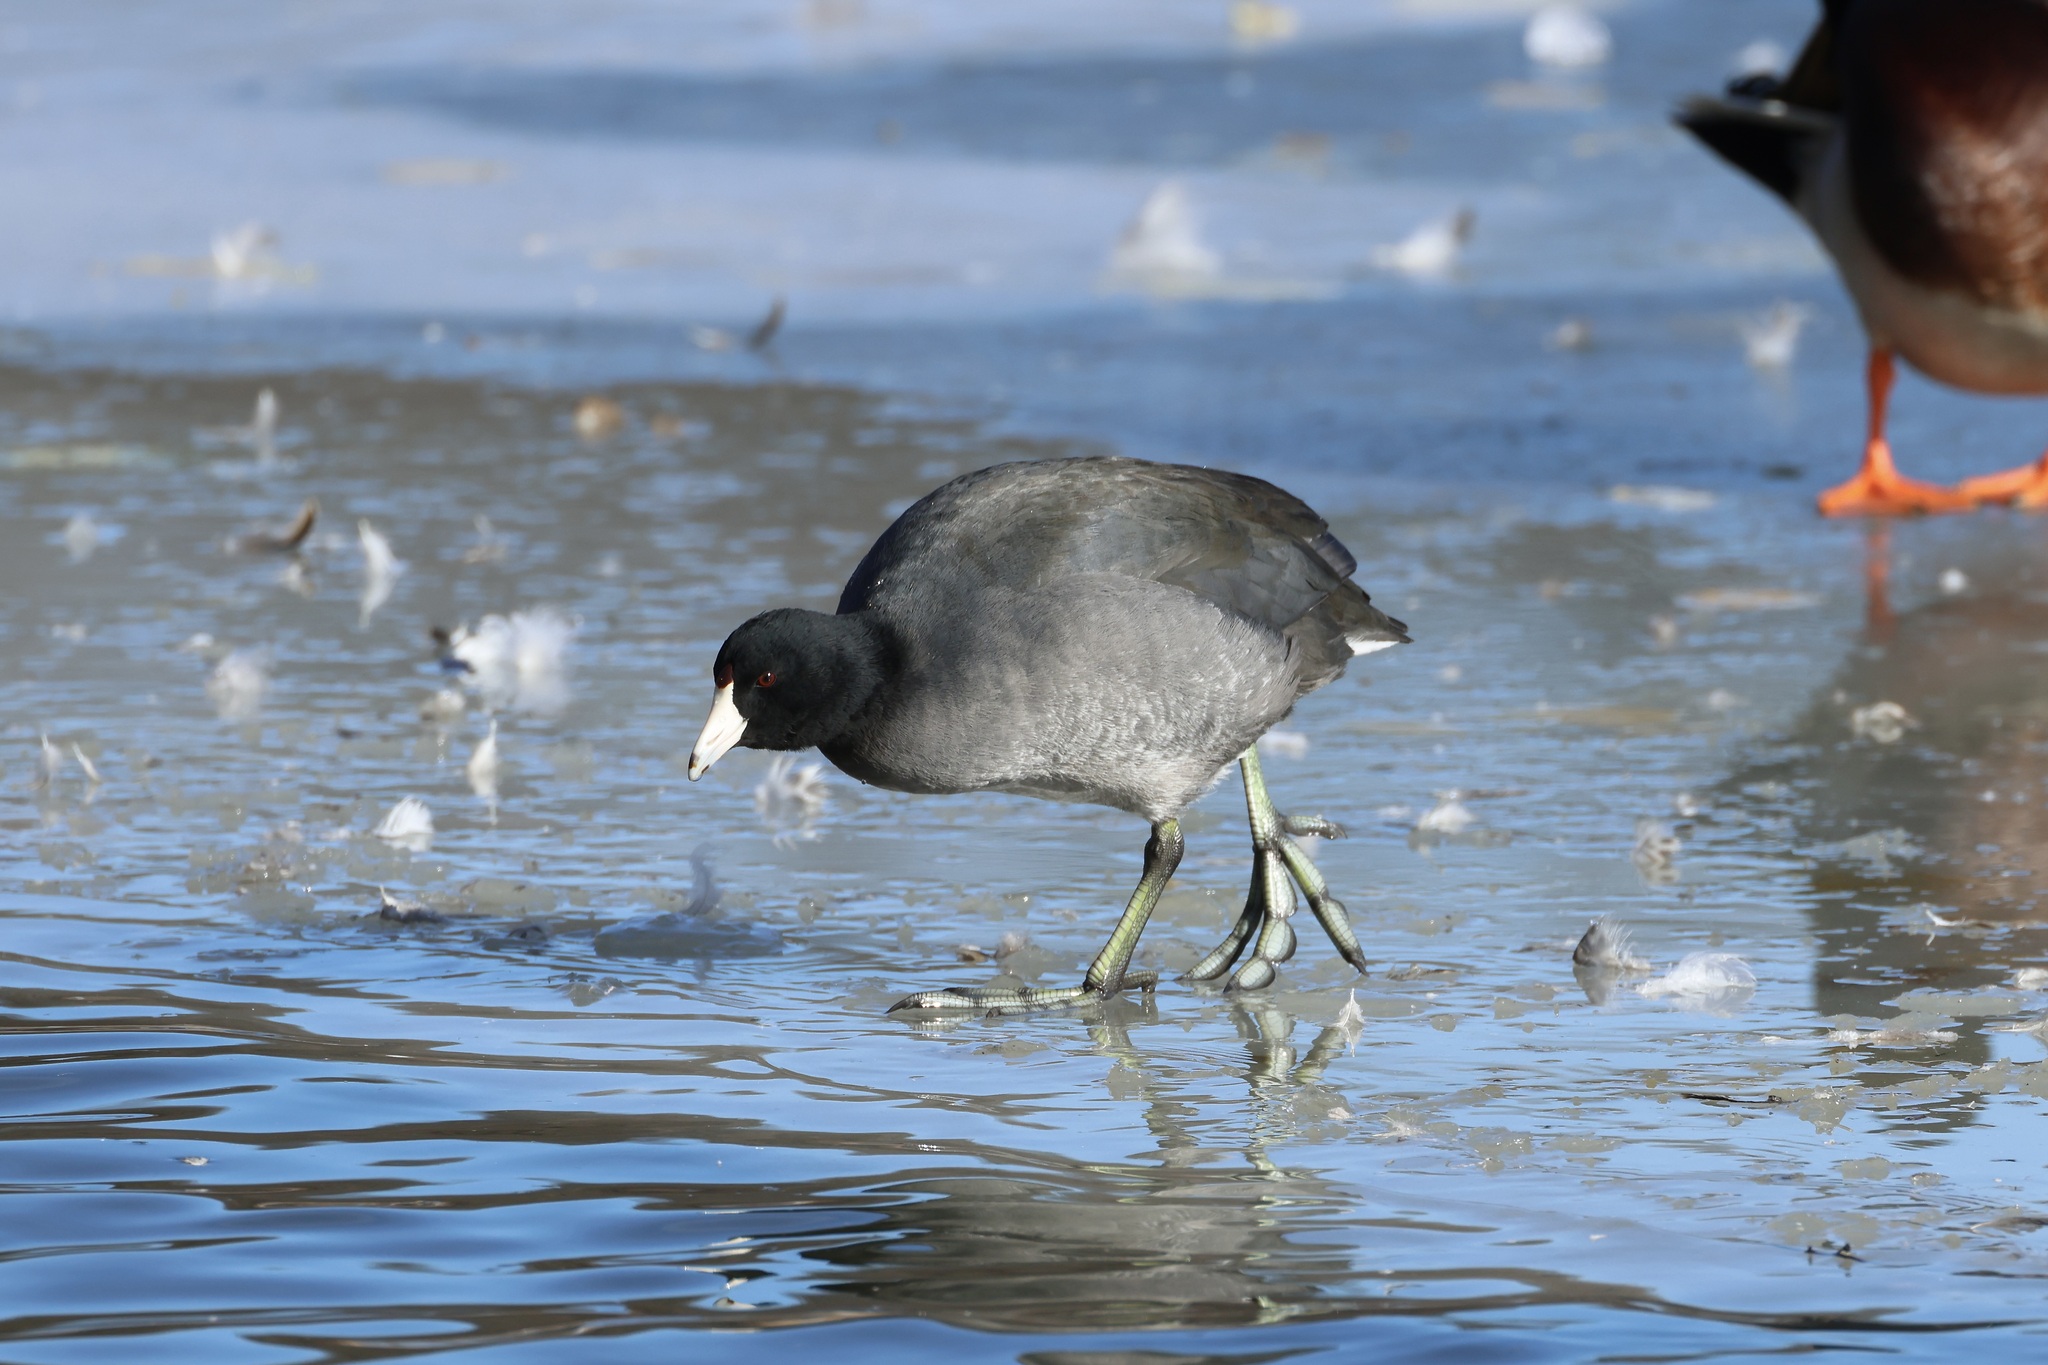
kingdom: Animalia
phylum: Chordata
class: Aves
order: Gruiformes
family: Rallidae
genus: Fulica
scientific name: Fulica americana
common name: American coot
